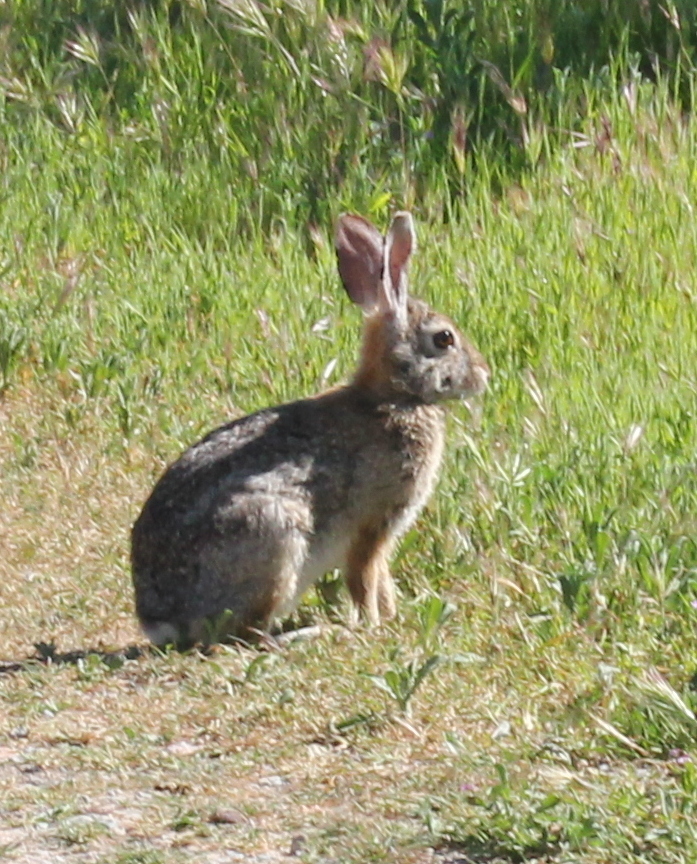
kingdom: Animalia
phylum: Chordata
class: Mammalia
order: Lagomorpha
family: Leporidae
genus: Sylvilagus
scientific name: Sylvilagus audubonii
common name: Desert cottontail
